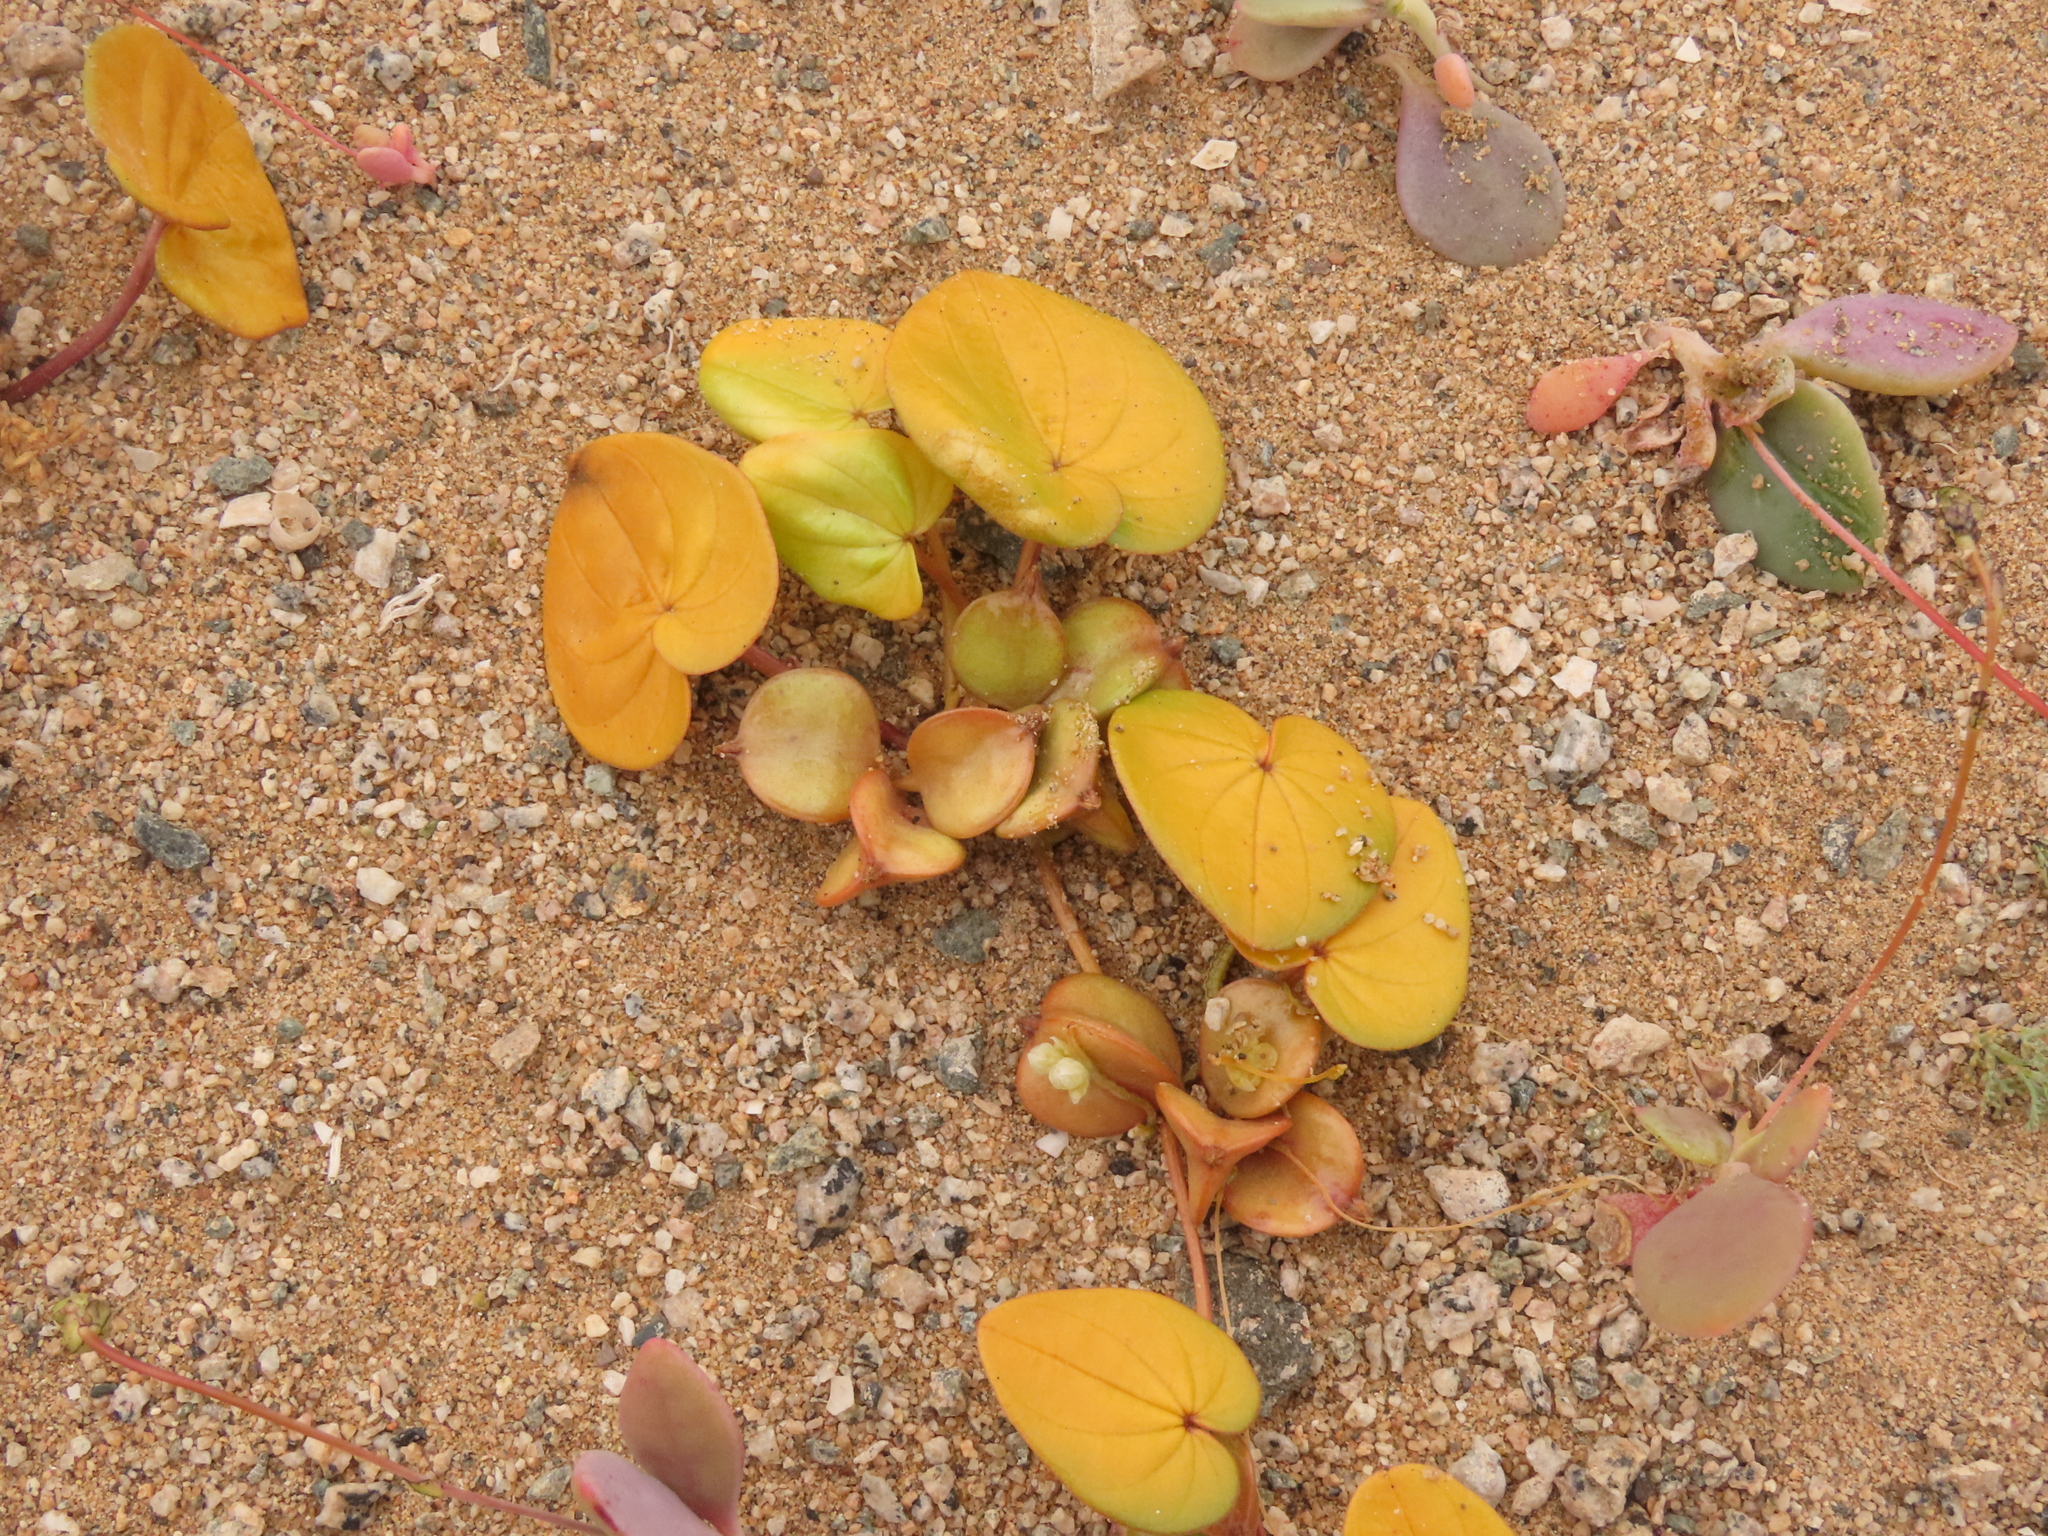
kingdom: Plantae
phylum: Tracheophyta
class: Liliopsida
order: Dioscoreales
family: Dioscoreaceae
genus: Dioscorea
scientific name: Dioscorea fastigiata
